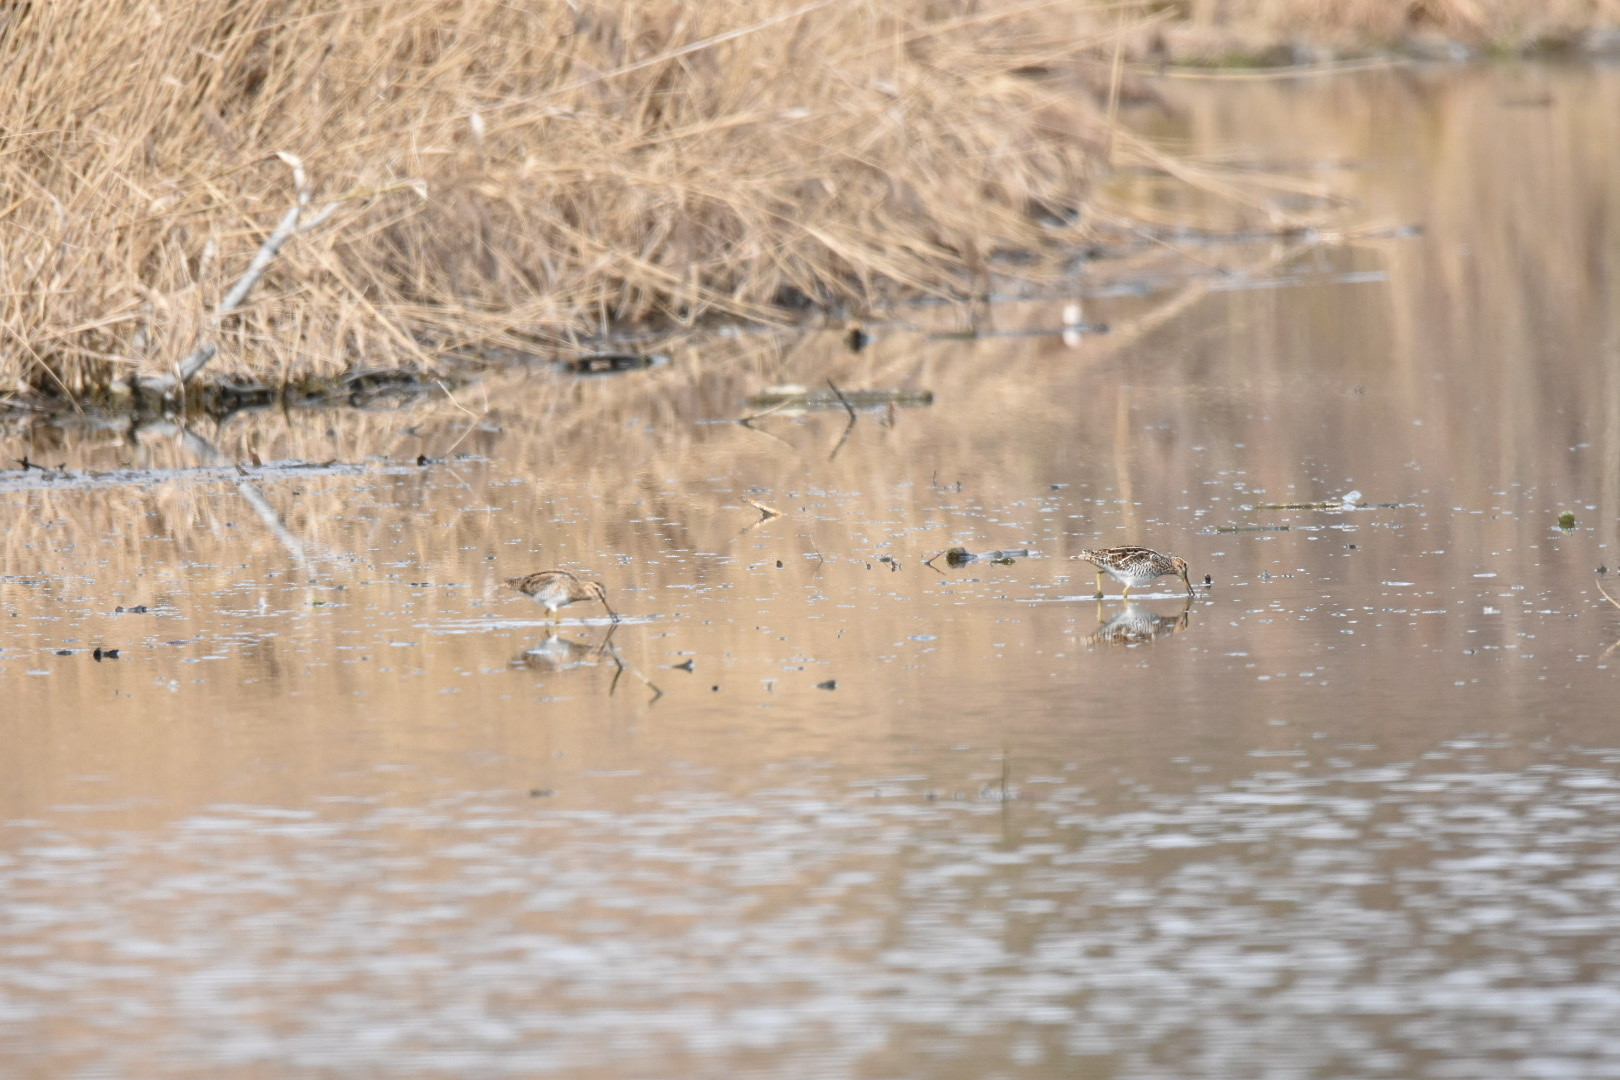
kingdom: Animalia
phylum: Chordata
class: Aves
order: Charadriiformes
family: Scolopacidae
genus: Gallinago
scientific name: Gallinago gallinago
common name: Common snipe
